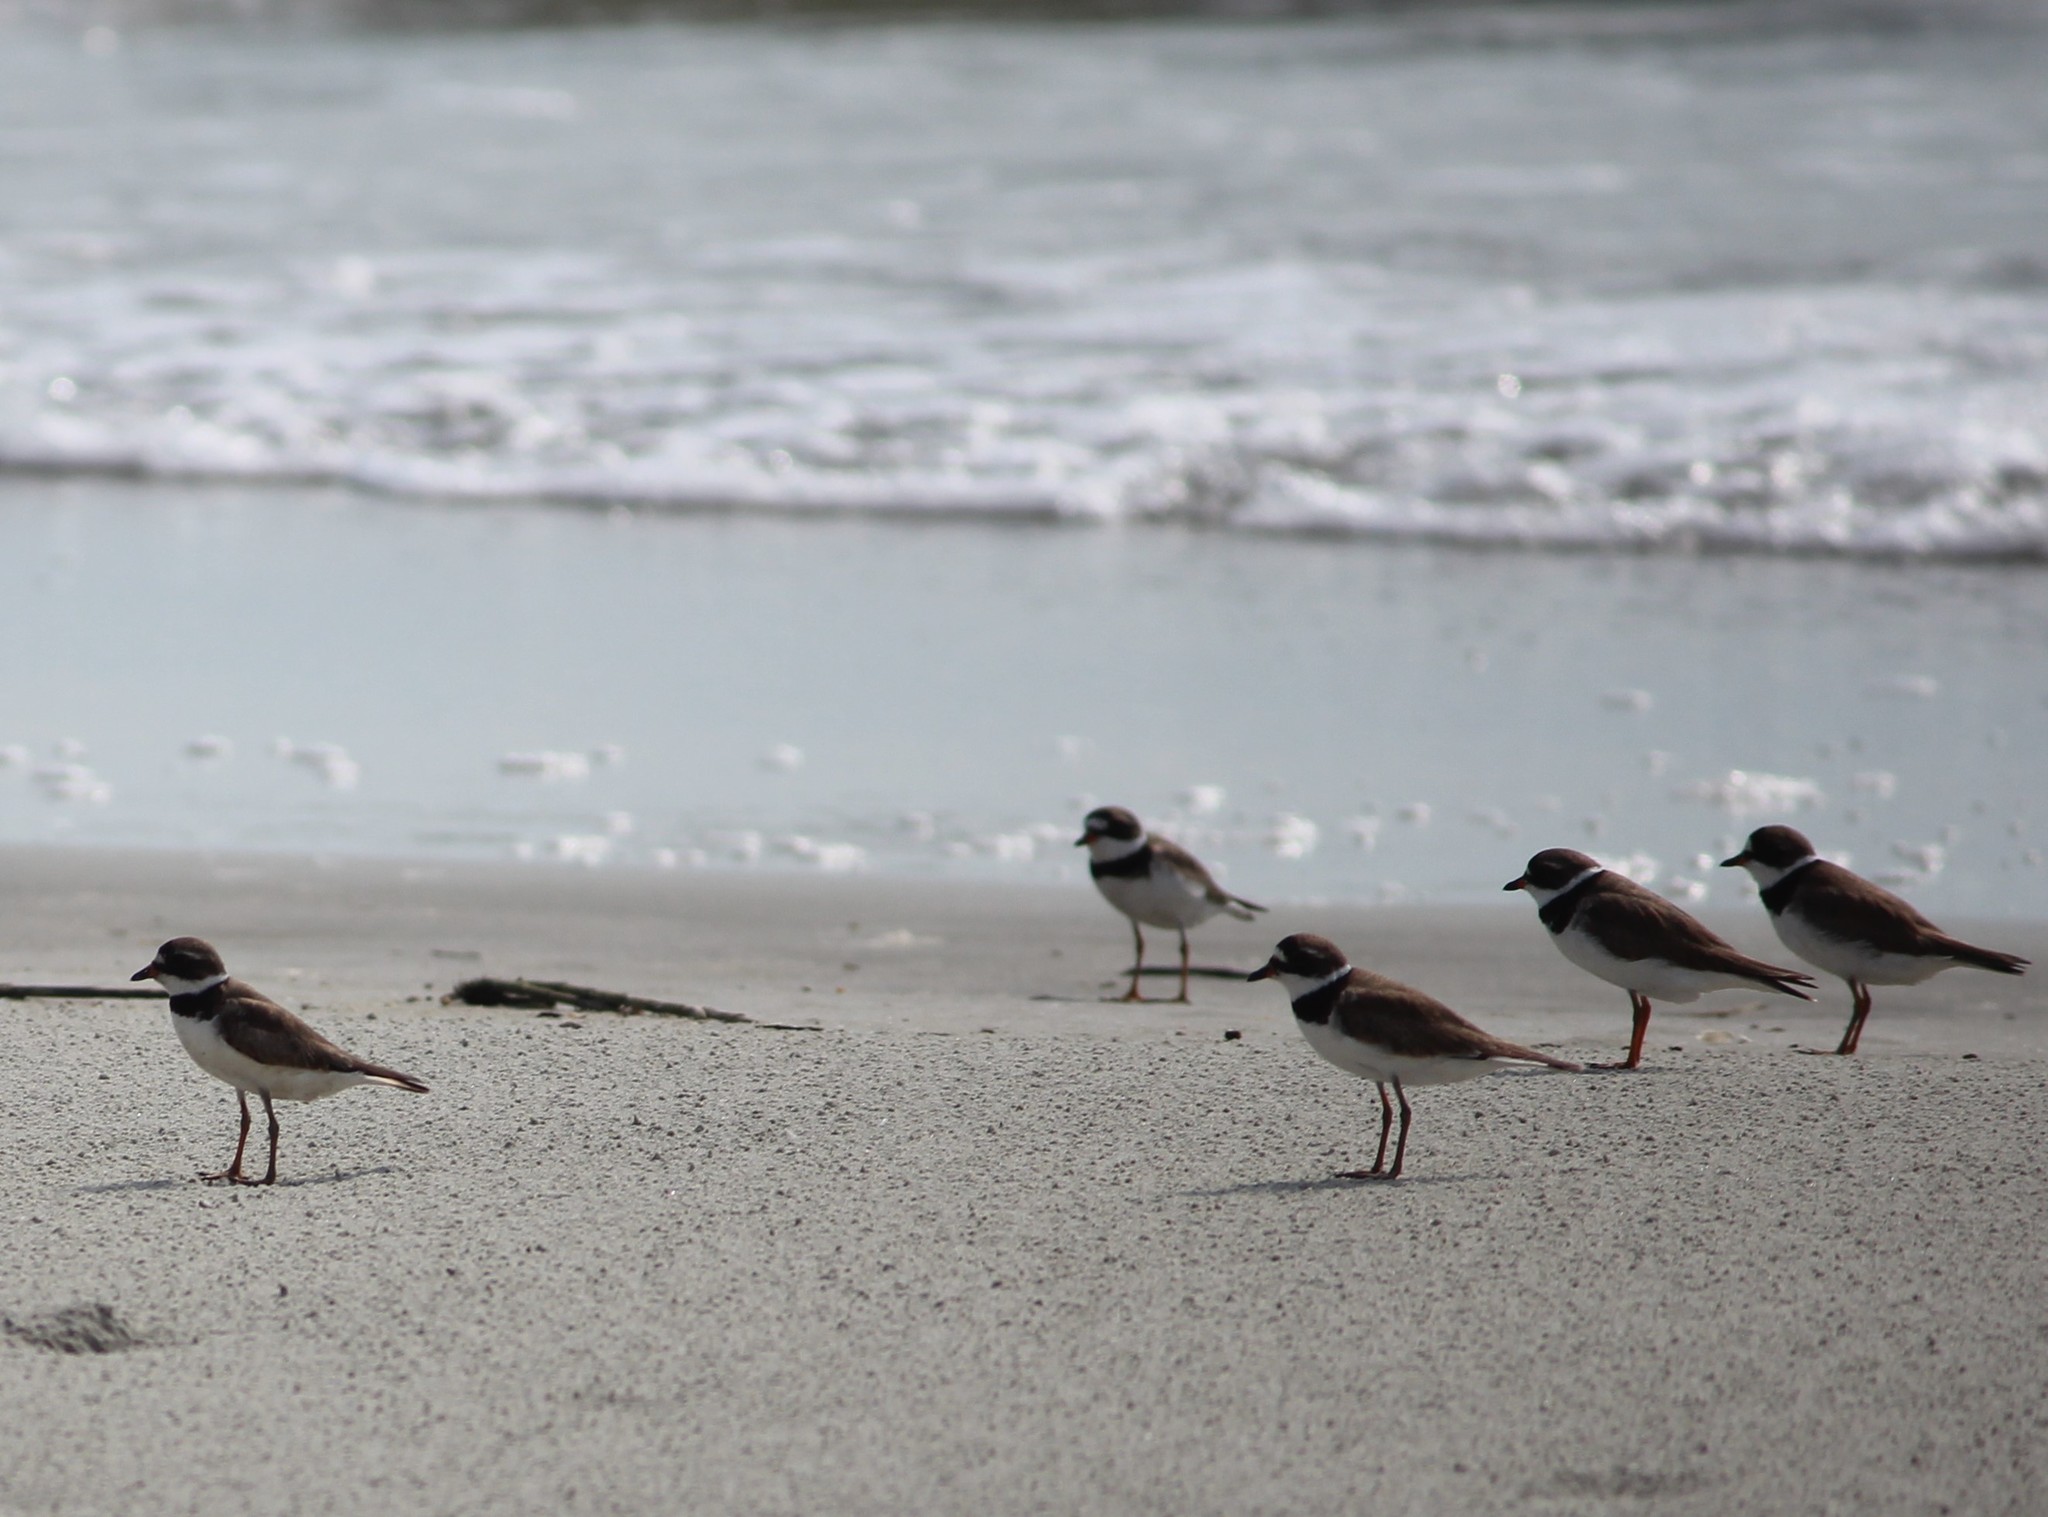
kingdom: Animalia
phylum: Chordata
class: Aves
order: Charadriiformes
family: Charadriidae
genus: Charadrius
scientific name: Charadrius semipalmatus
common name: Semipalmated plover
